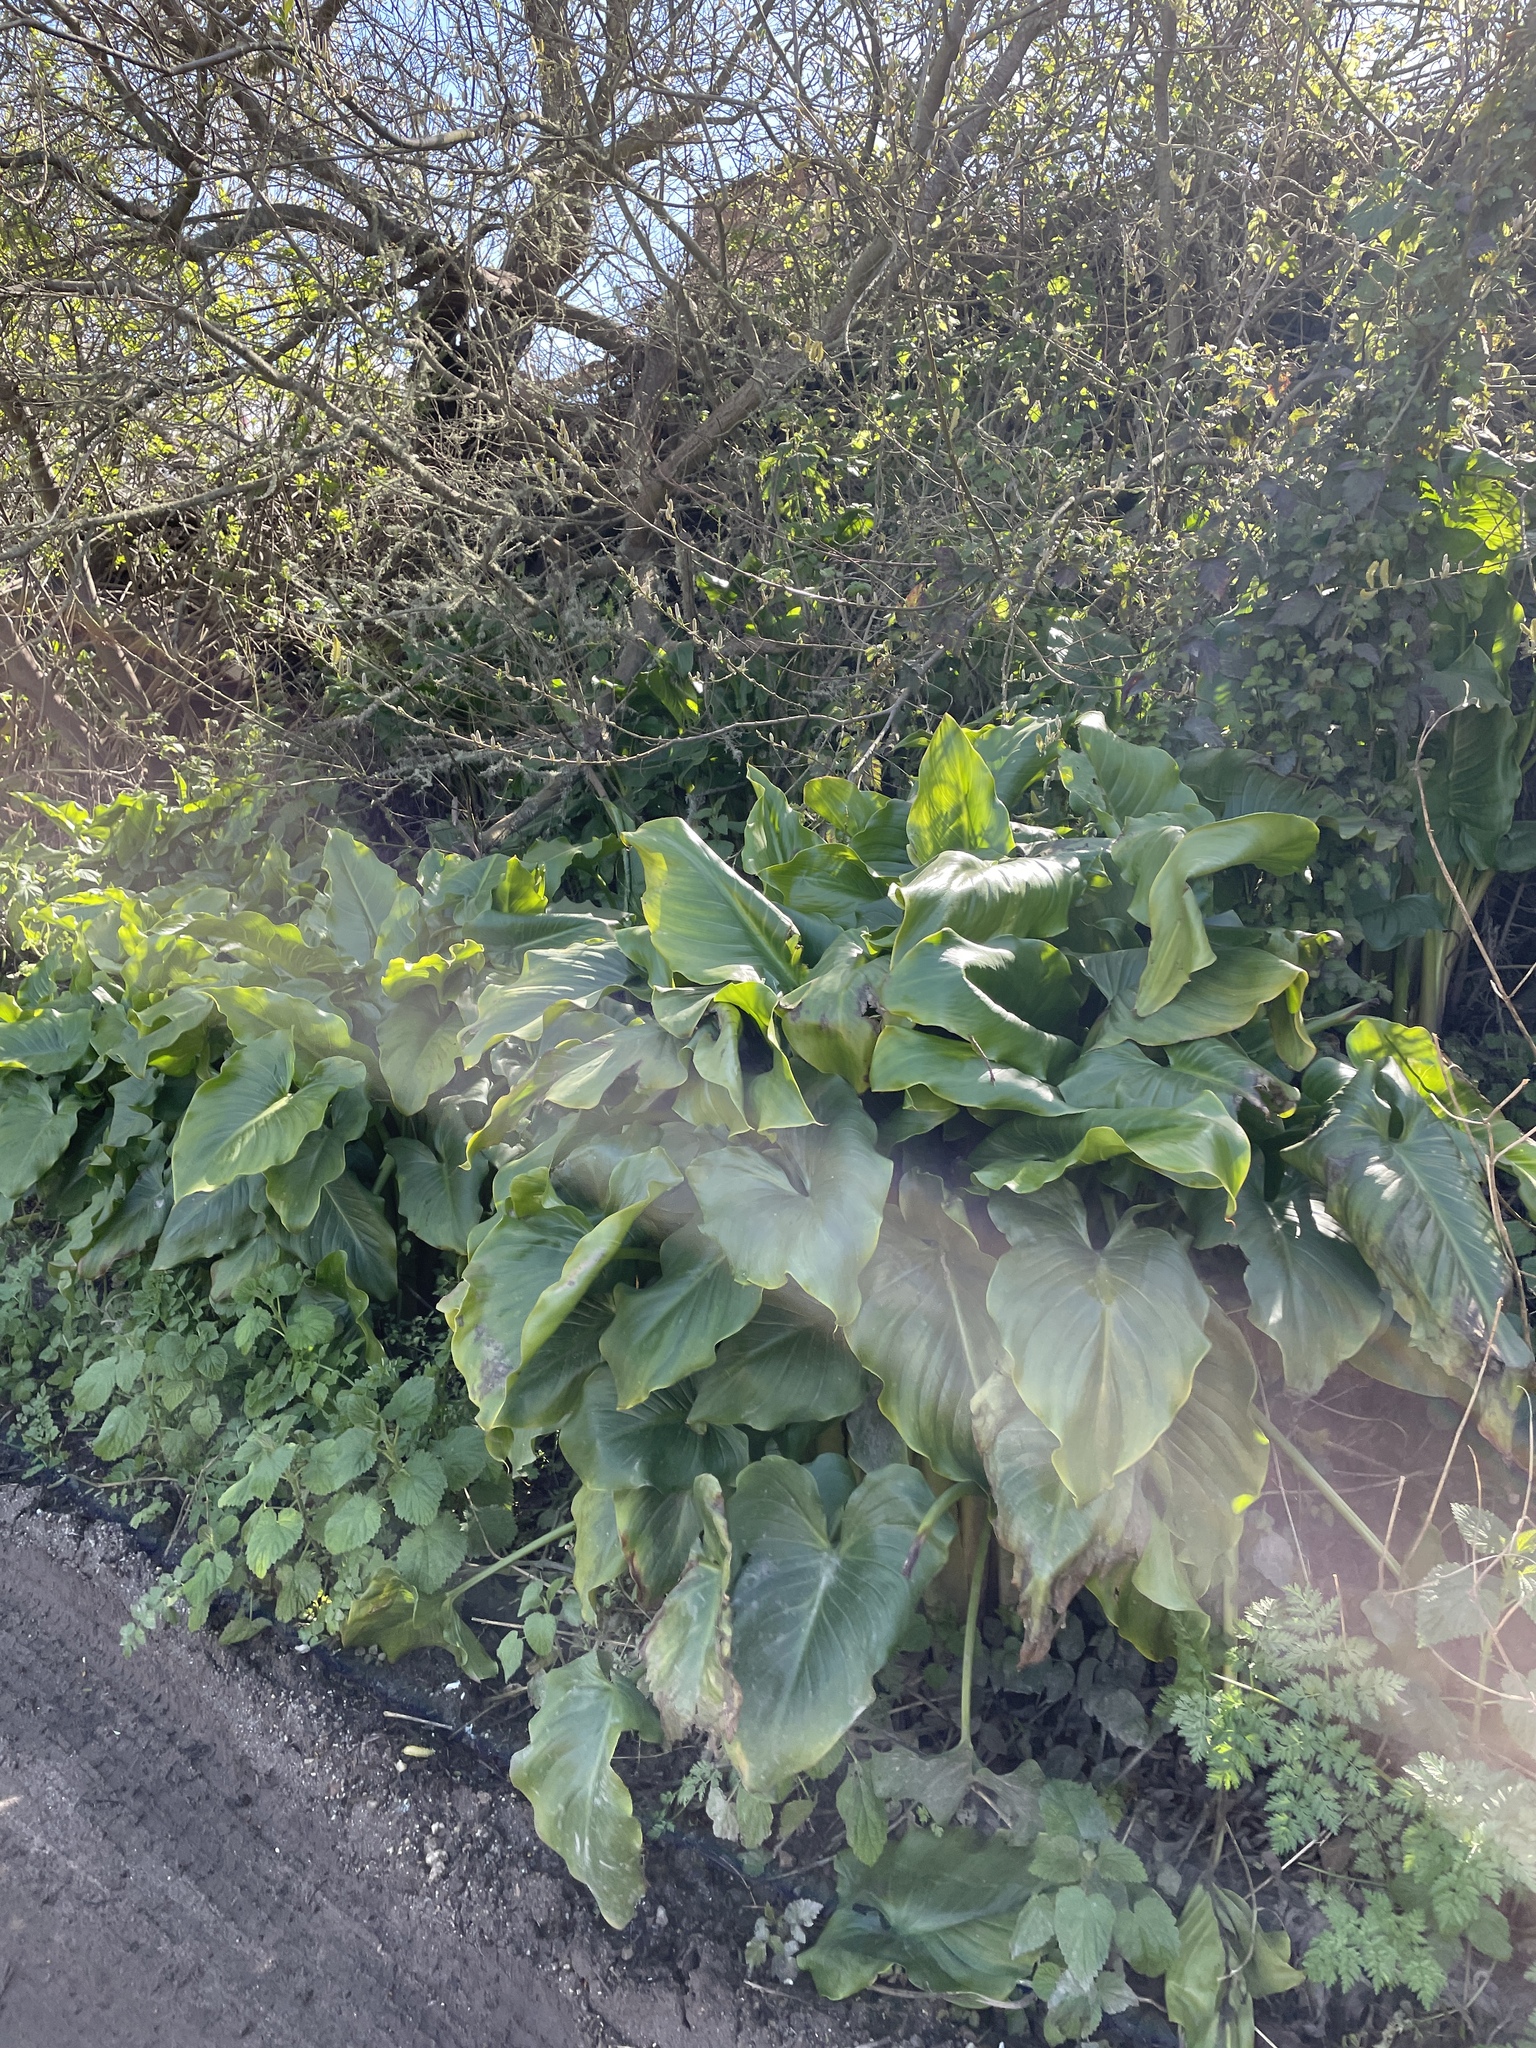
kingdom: Plantae
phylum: Tracheophyta
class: Liliopsida
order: Alismatales
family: Araceae
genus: Zantedeschia
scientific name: Zantedeschia aethiopica
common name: Altar-lily
